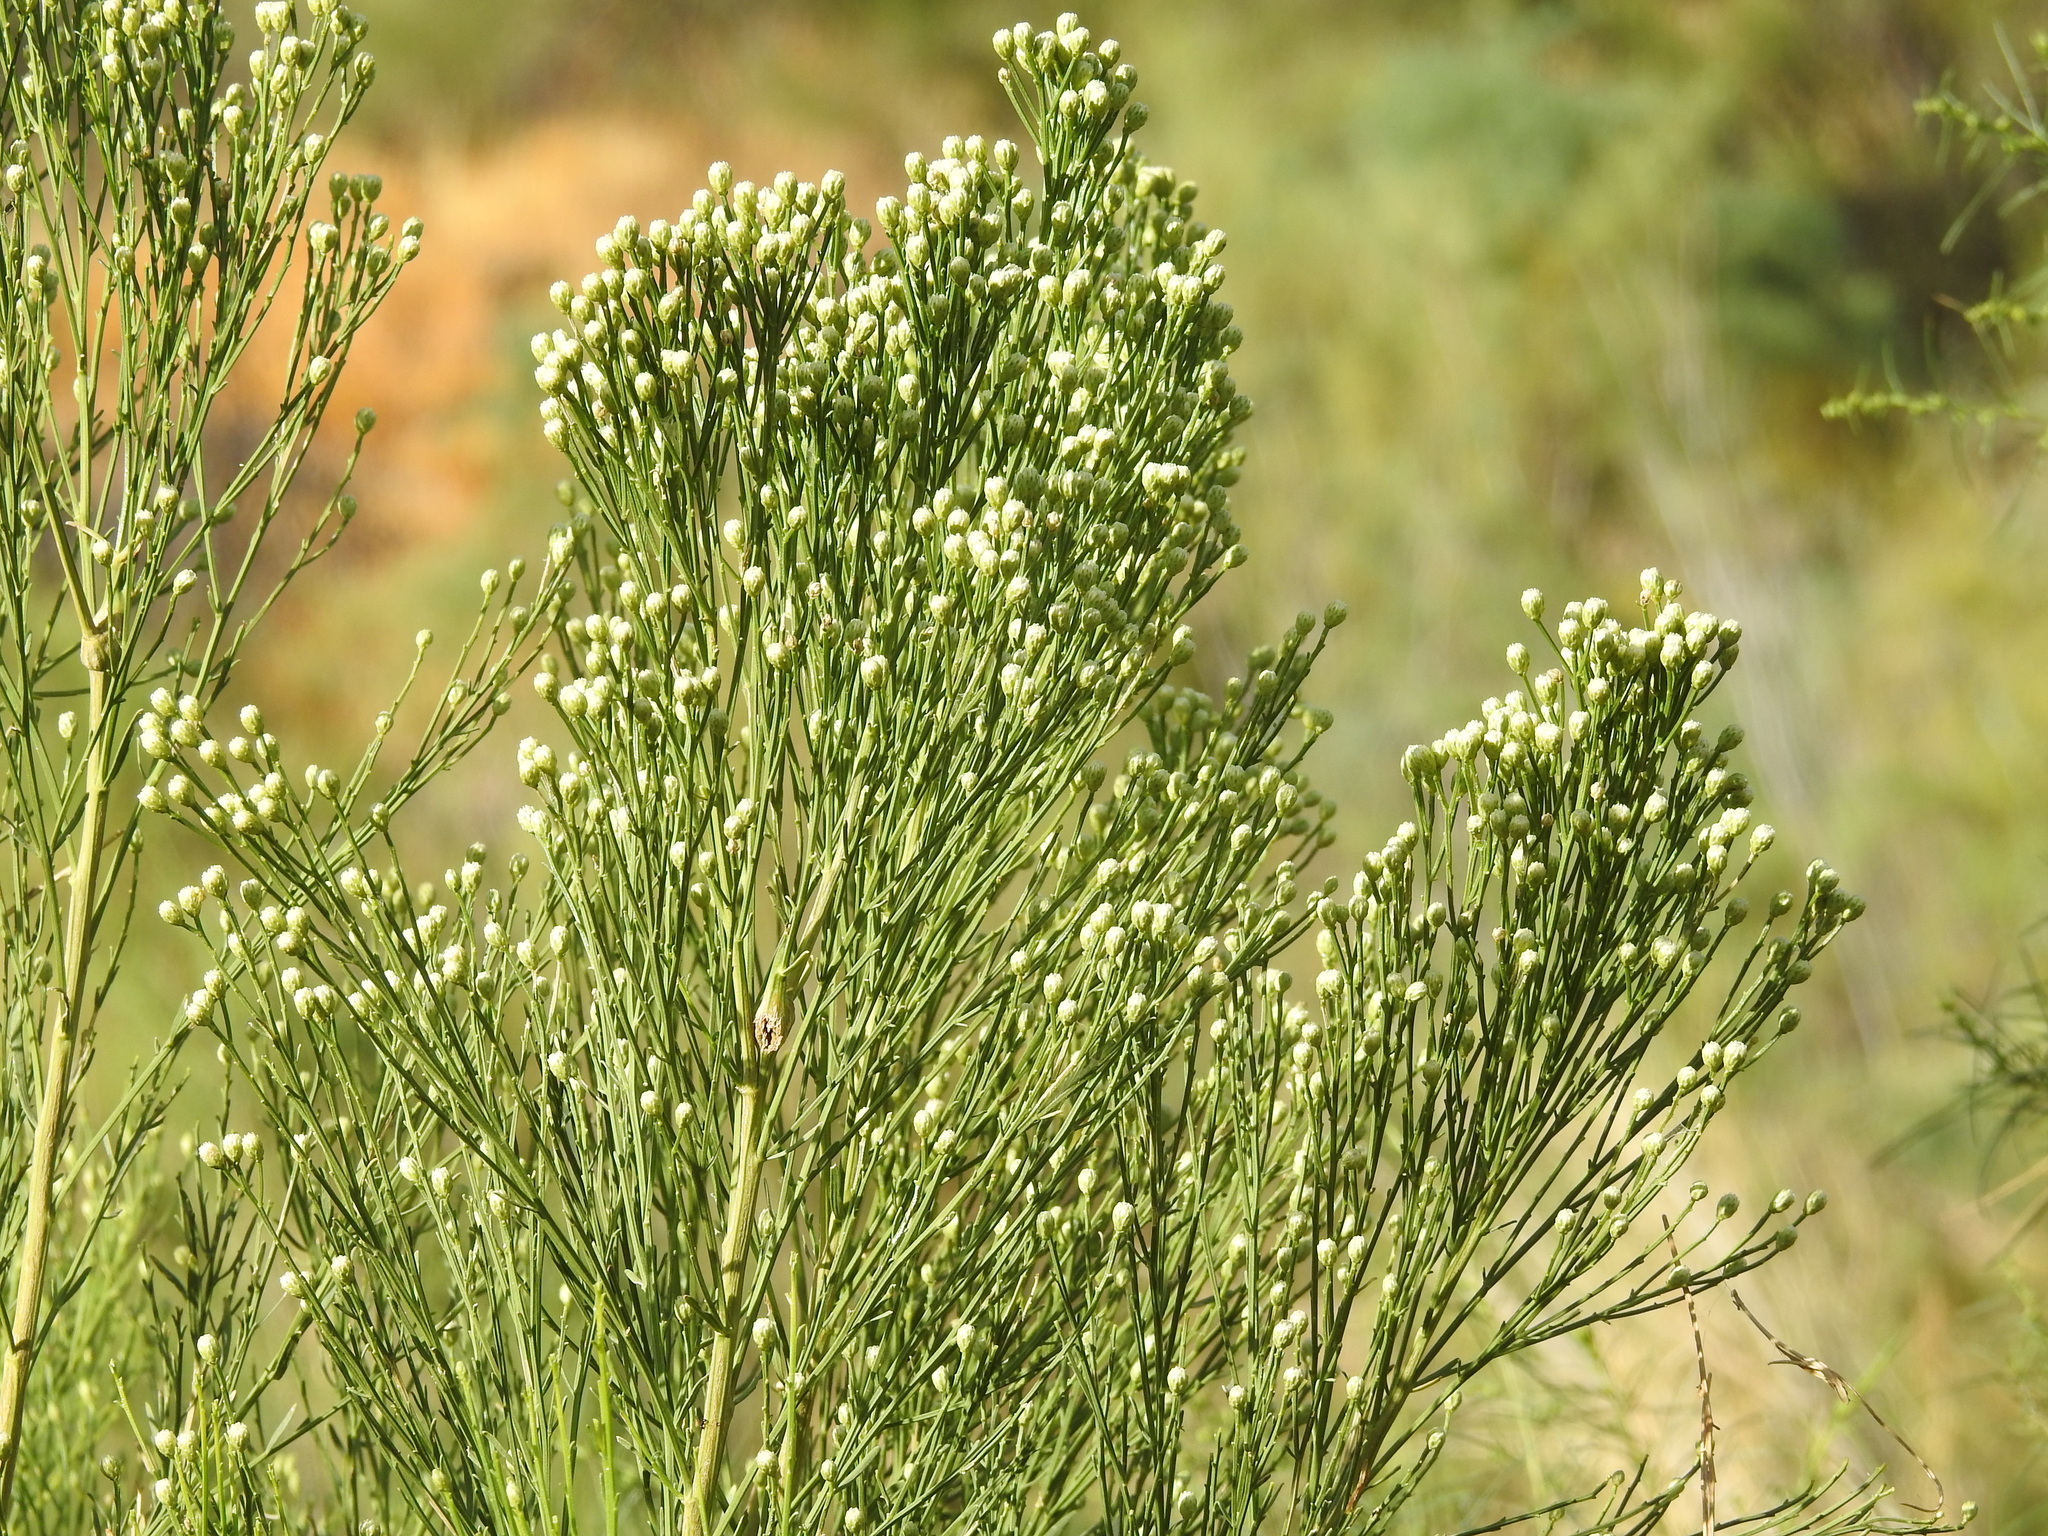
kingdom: Plantae
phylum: Tracheophyta
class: Magnoliopsida
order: Asterales
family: Asteraceae
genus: Baccharis
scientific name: Baccharis sarothroides
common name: Desert-broom
